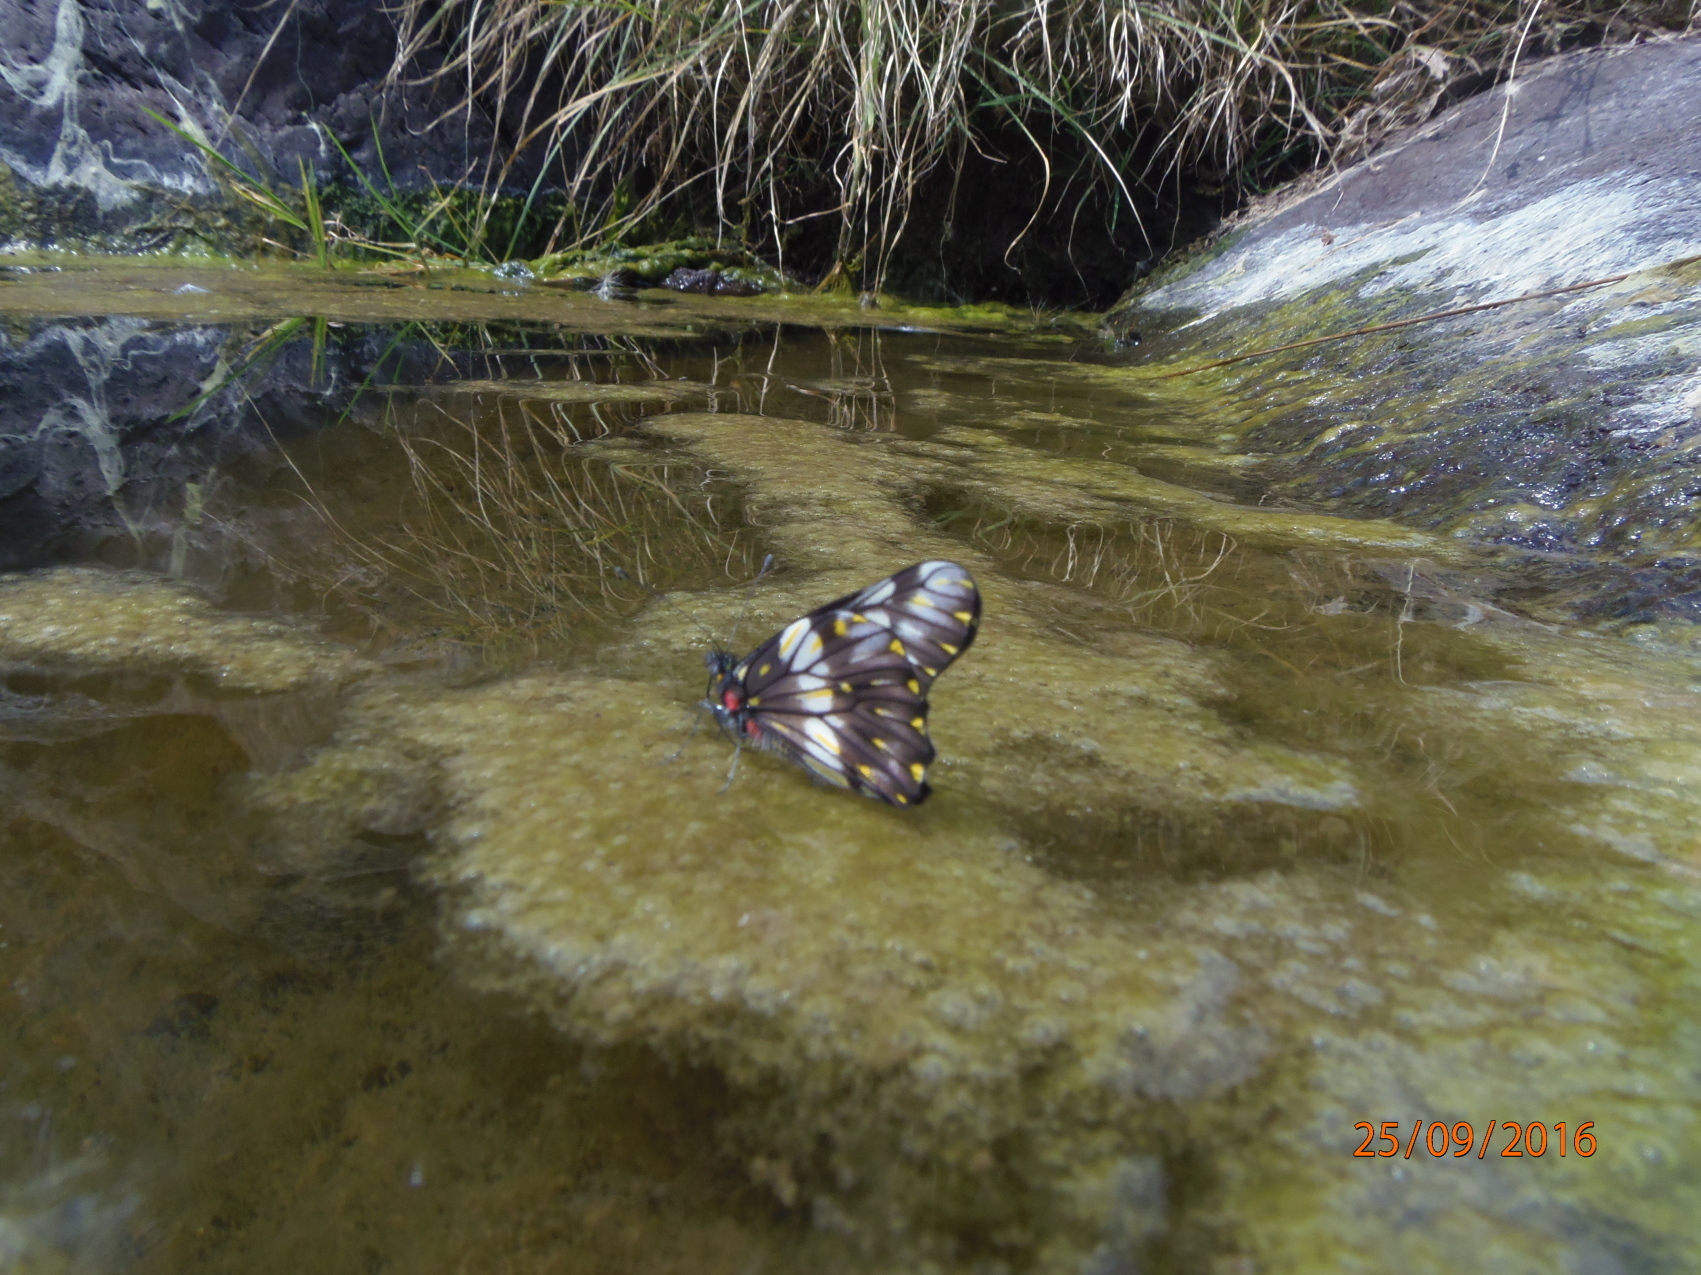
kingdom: Animalia
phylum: Arthropoda
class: Insecta
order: Lepidoptera
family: Pieridae
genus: Archonias
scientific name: Archonias nimbice
